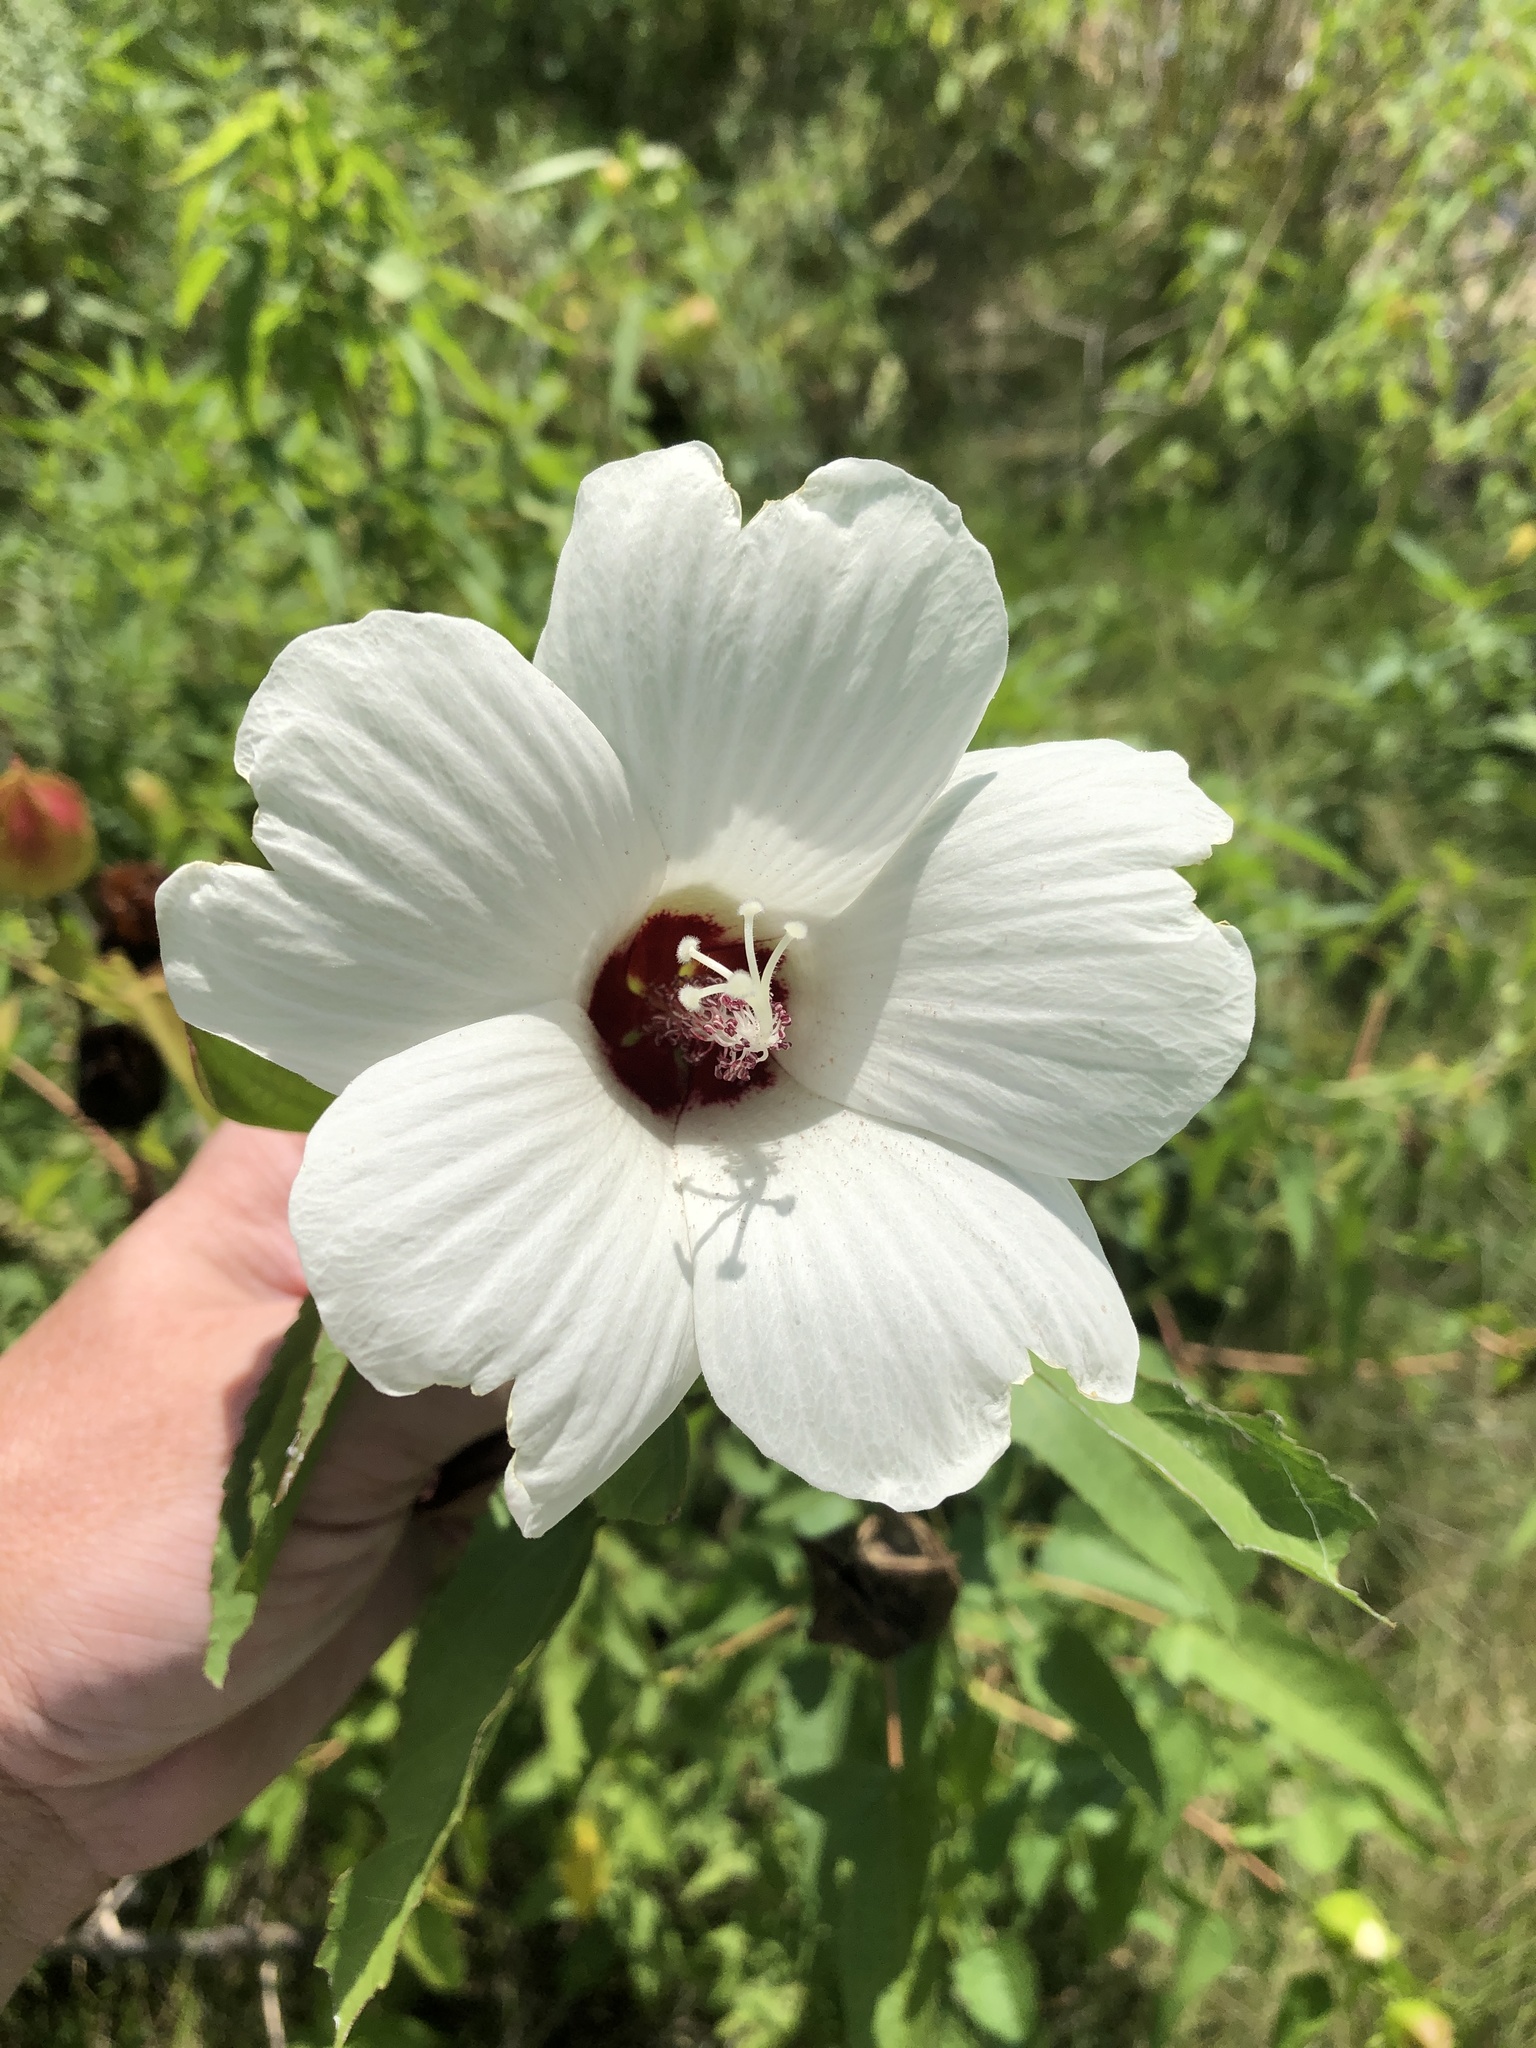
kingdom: Plantae
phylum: Tracheophyta
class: Magnoliopsida
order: Malvales
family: Malvaceae
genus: Hibiscus
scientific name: Hibiscus laevis
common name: Scarlet rose-mallow
